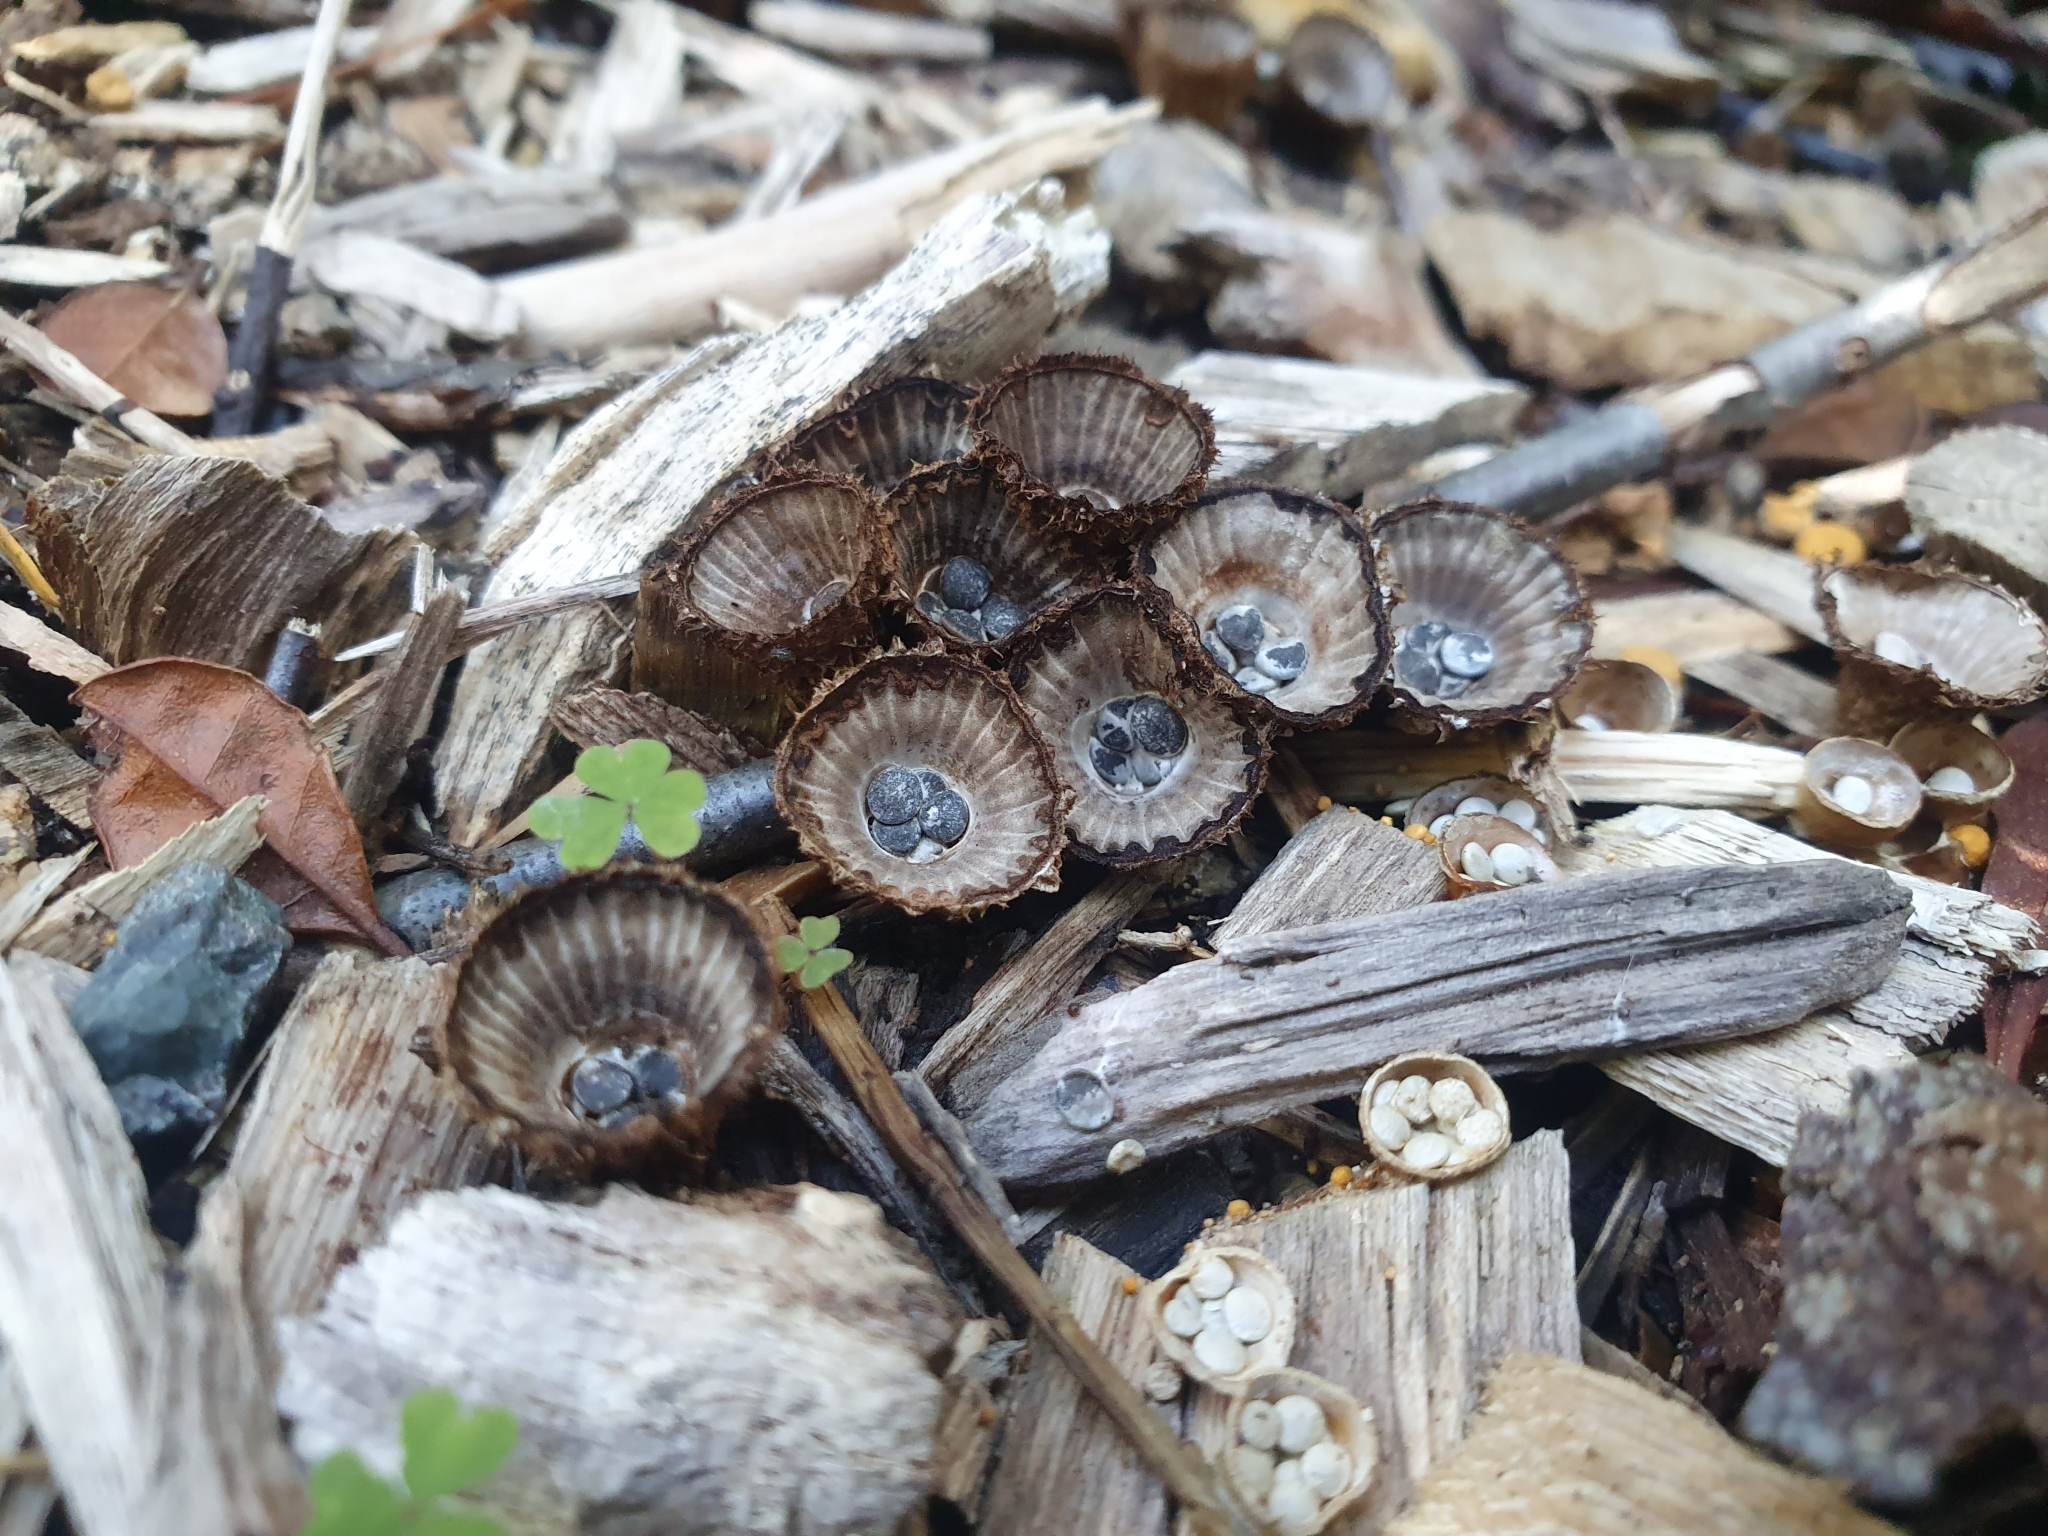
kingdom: Fungi
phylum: Basidiomycota
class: Agaricomycetes
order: Agaricales
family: Agaricaceae
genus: Cyathus
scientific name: Cyathus striatus
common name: Fluted bird's nest
